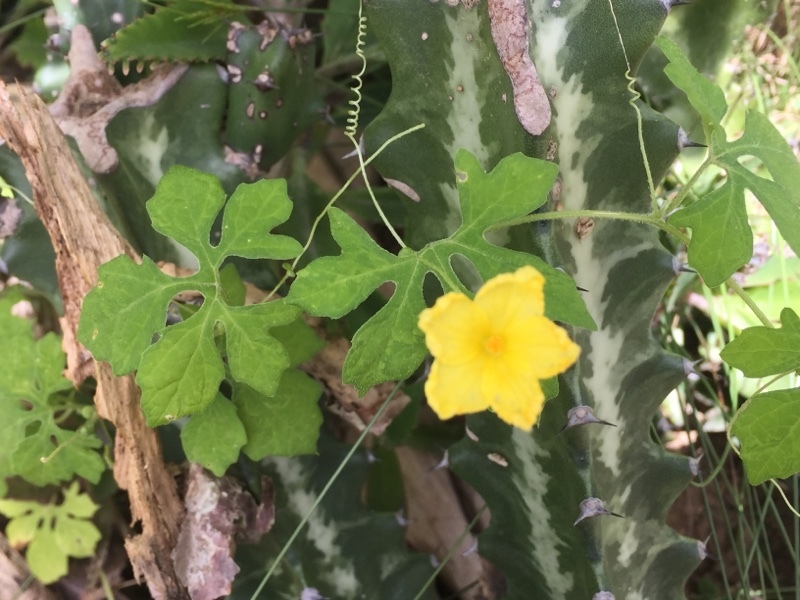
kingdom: Plantae
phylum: Tracheophyta
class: Magnoliopsida
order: Cucurbitales
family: Cucurbitaceae
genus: Momordica
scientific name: Momordica charantia
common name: Balsampear
